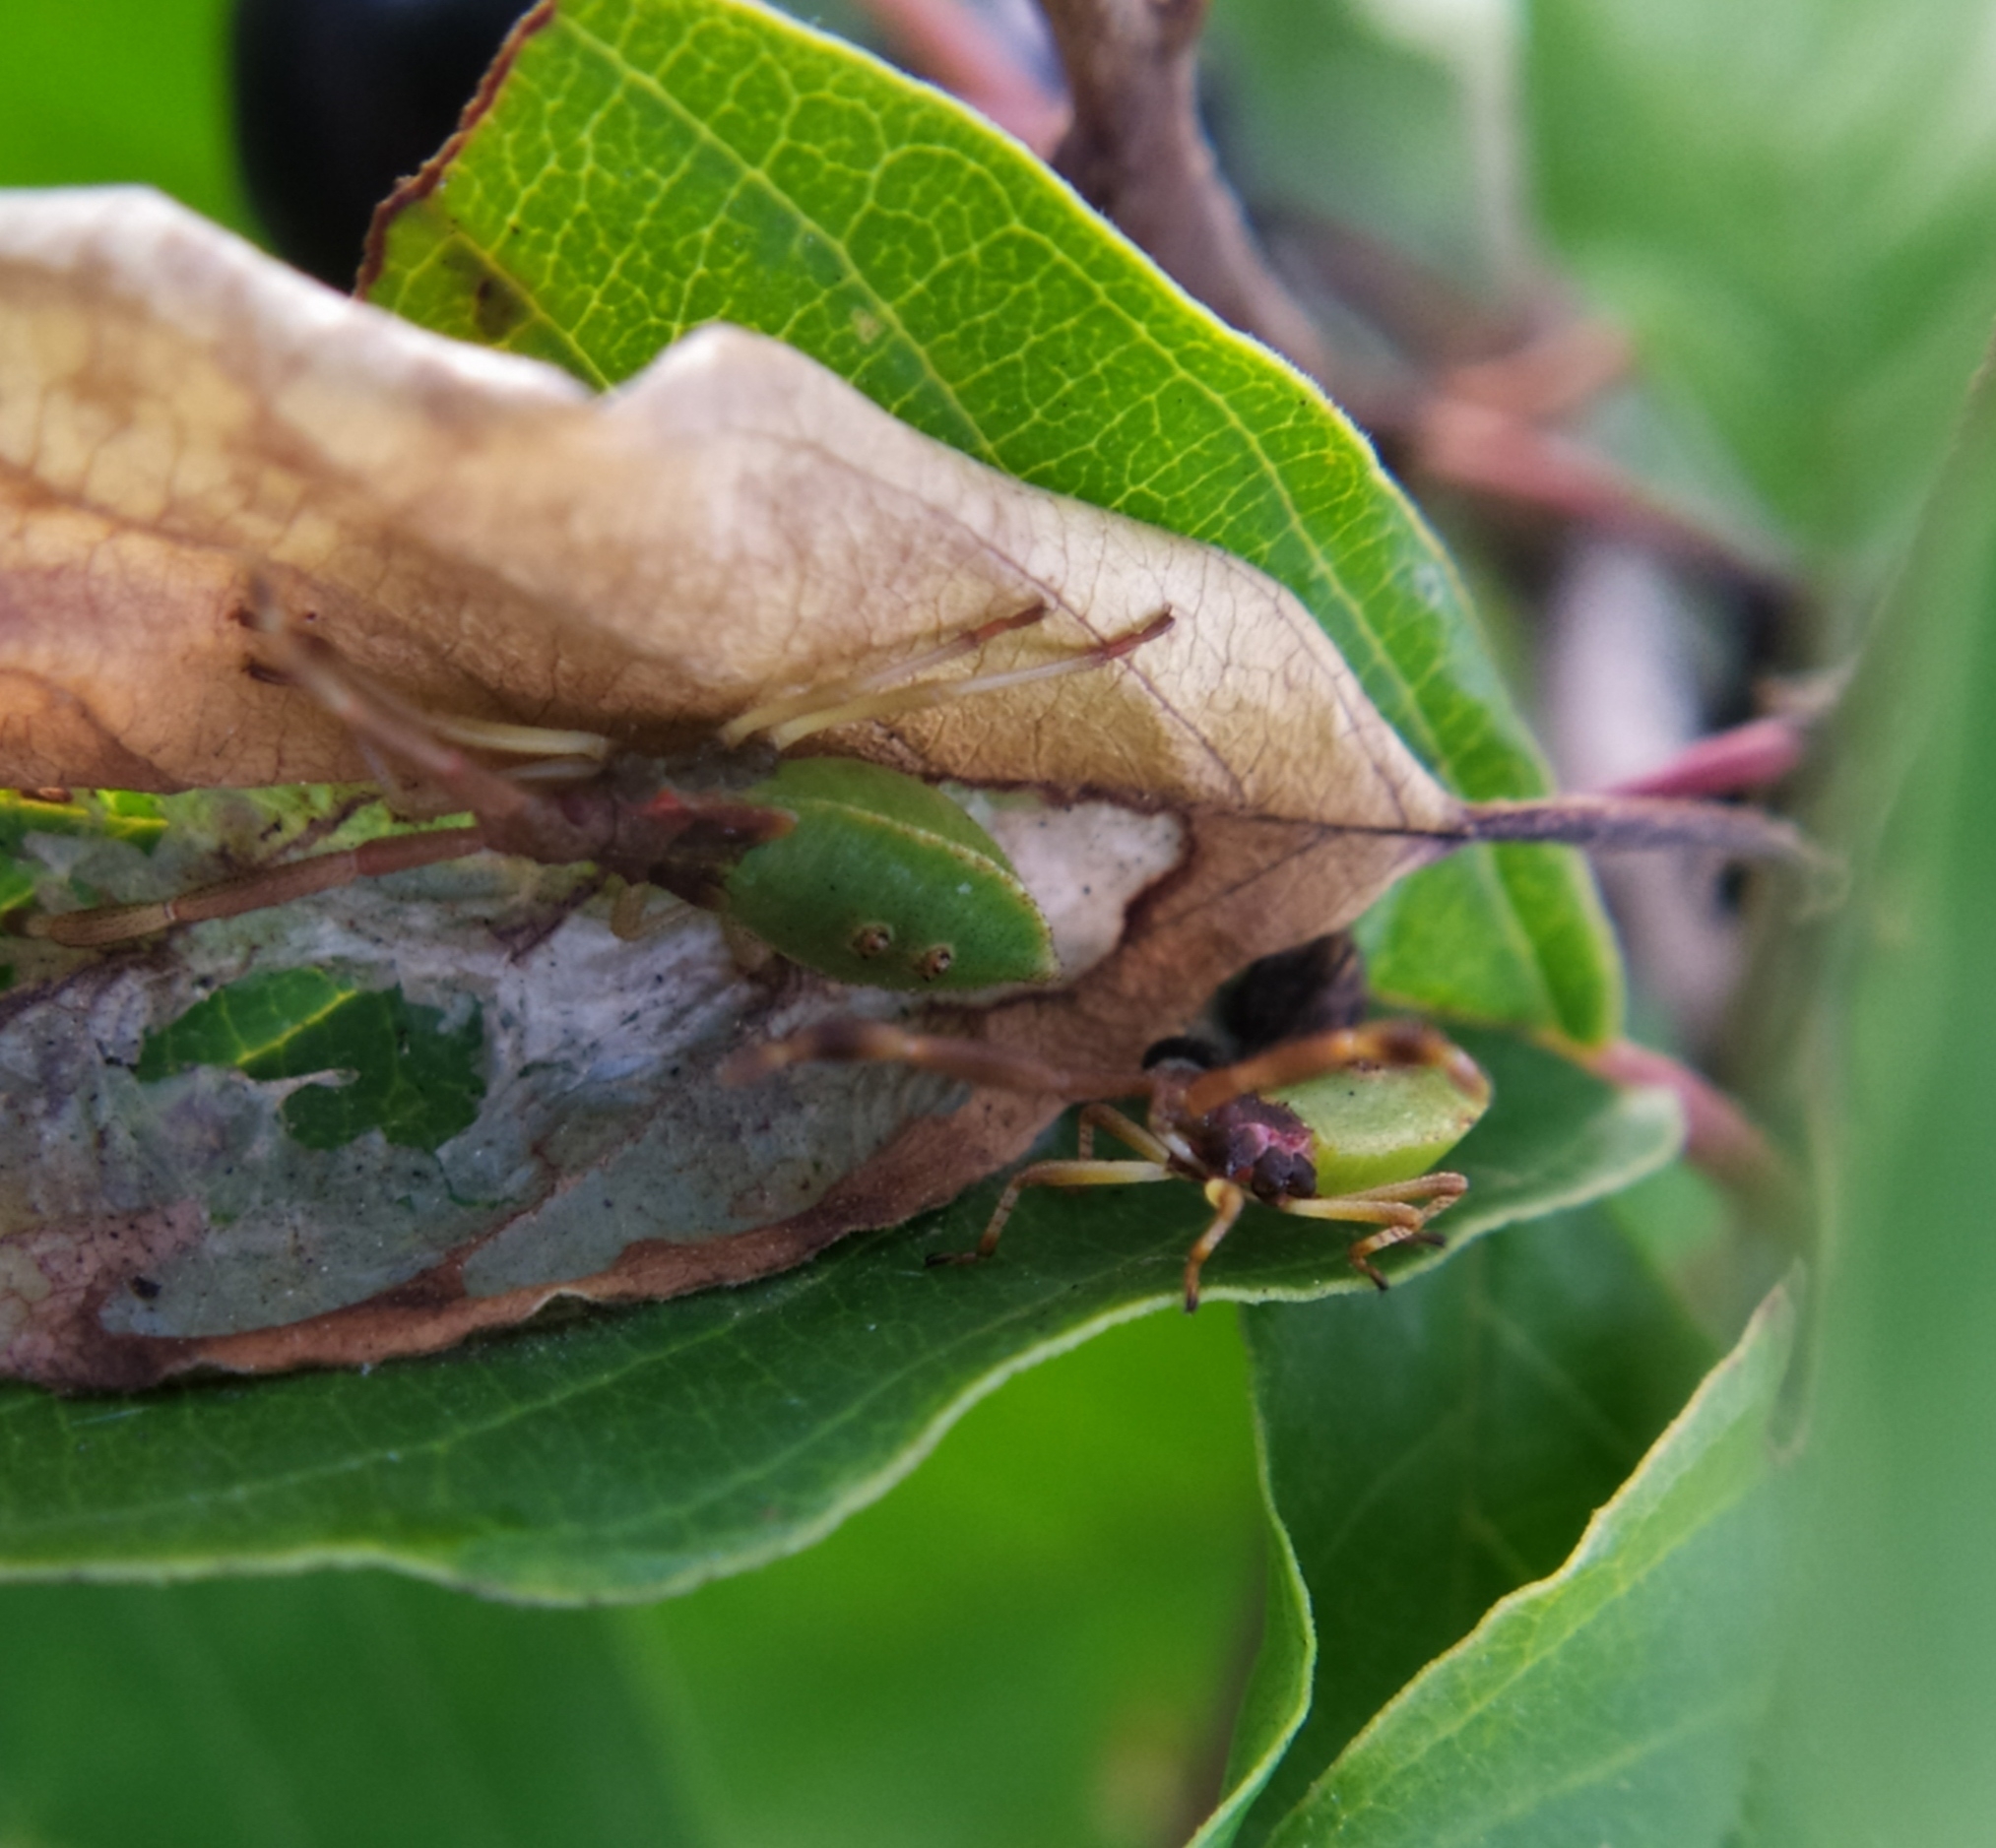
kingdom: Animalia
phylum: Arthropoda
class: Insecta
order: Hemiptera
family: Coreidae
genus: Gonocerus
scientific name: Gonocerus acuteangulatus
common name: Box bug
